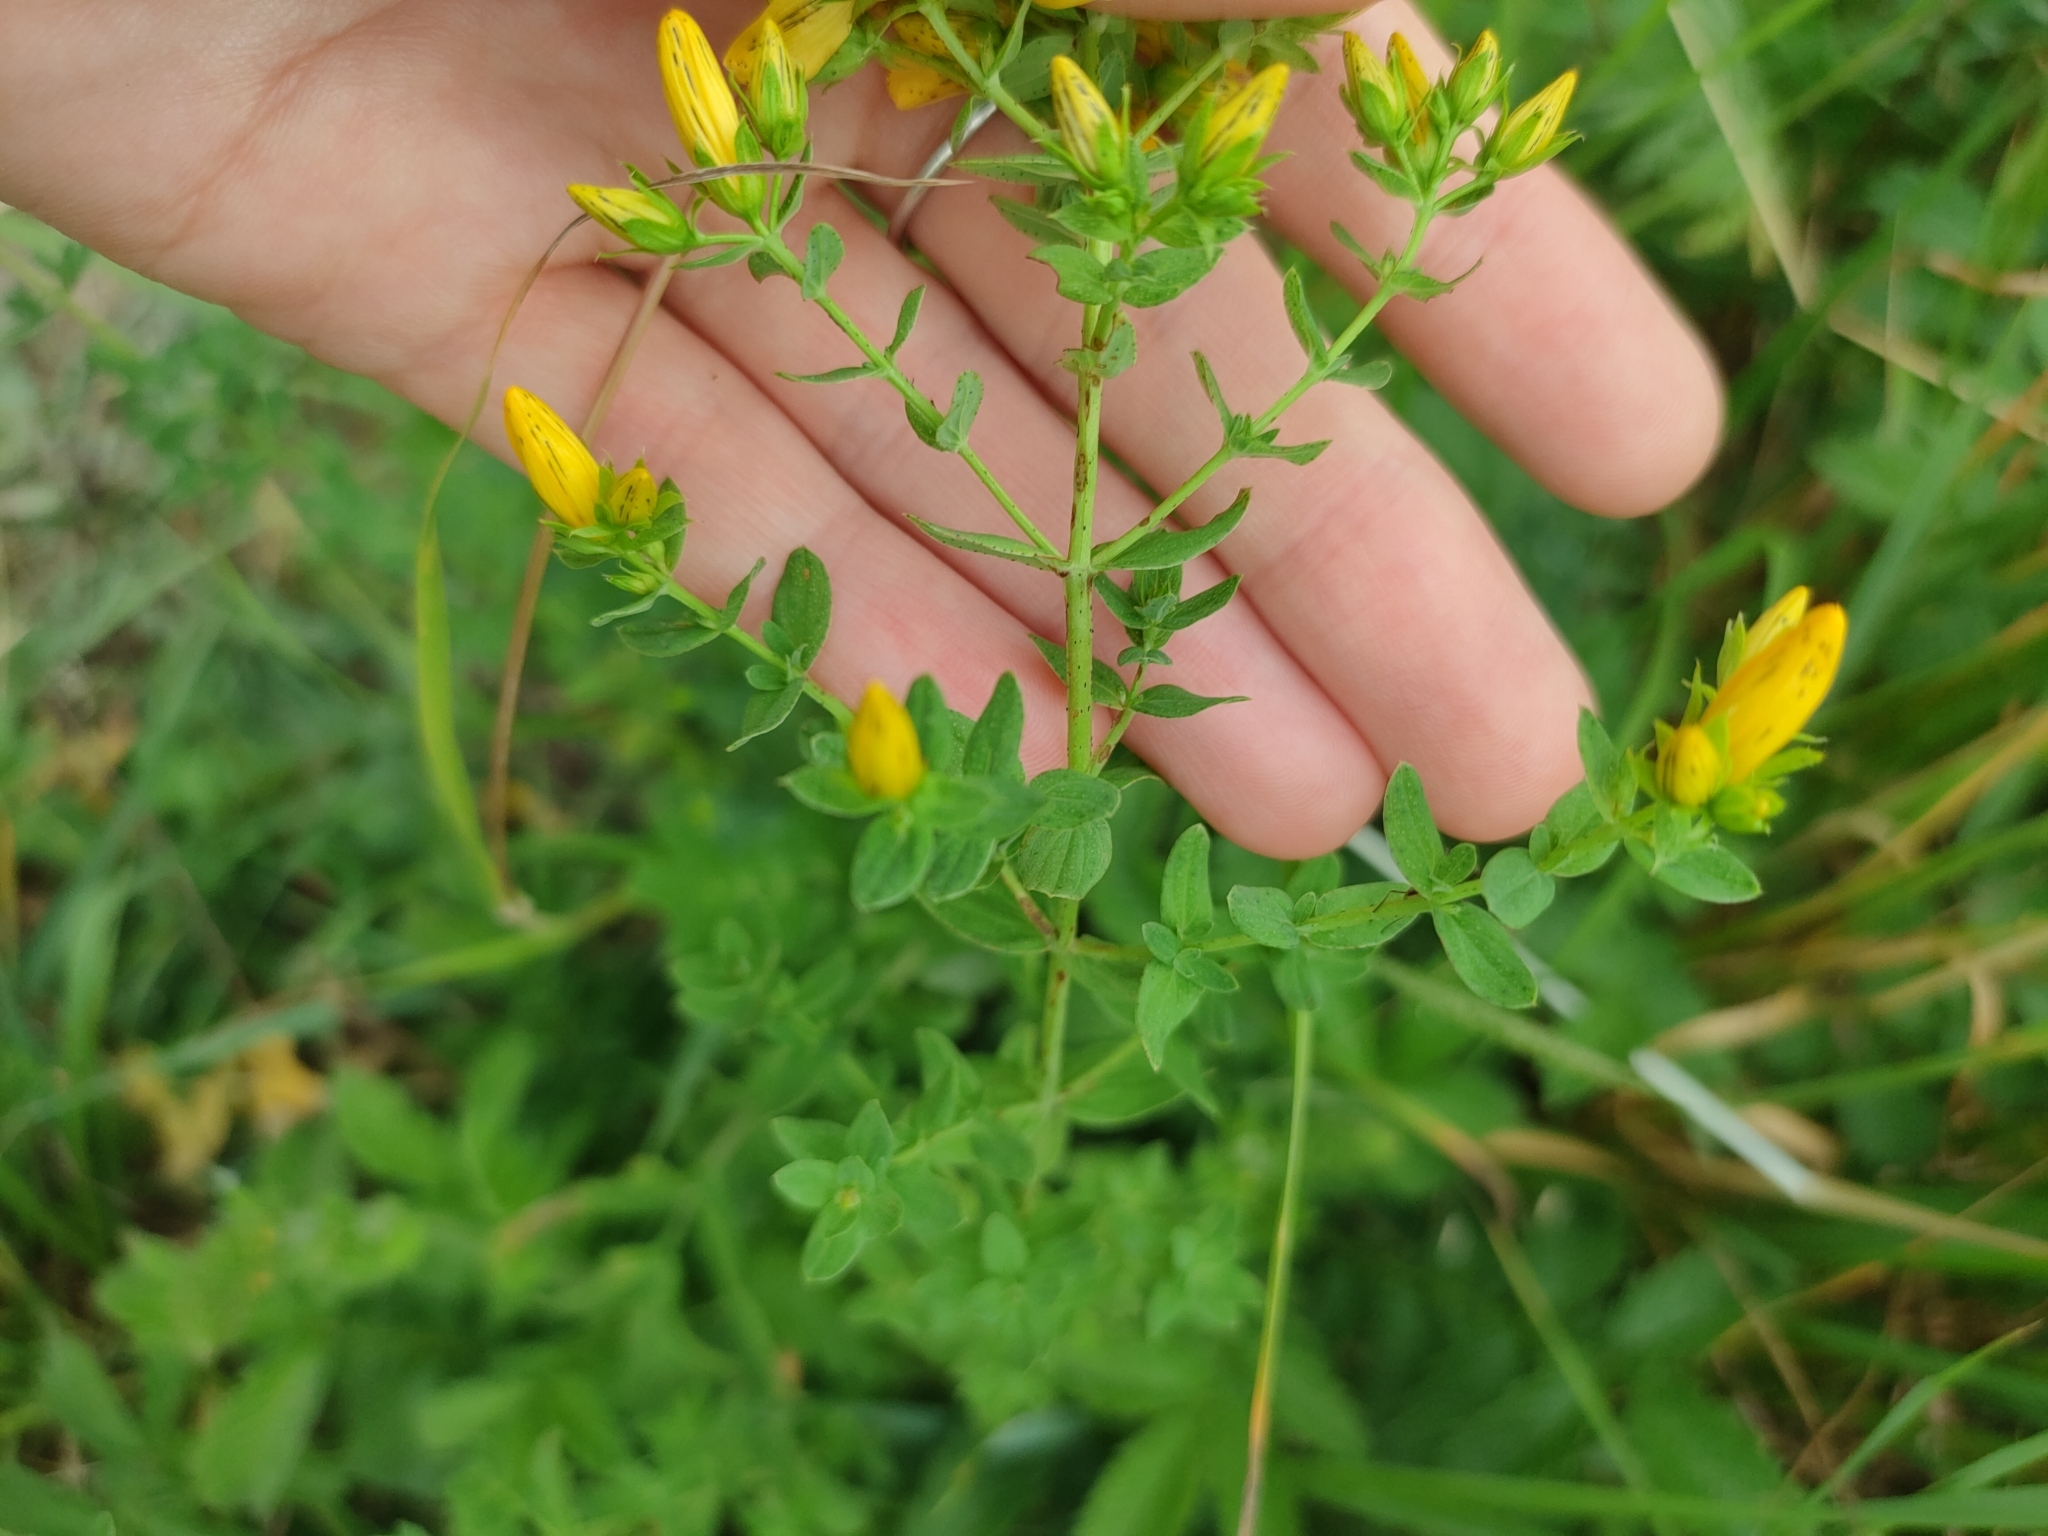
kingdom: Plantae
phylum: Tracheophyta
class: Magnoliopsida
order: Malpighiales
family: Hypericaceae
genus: Hypericum
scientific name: Hypericum perforatum
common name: Common st. johnswort
